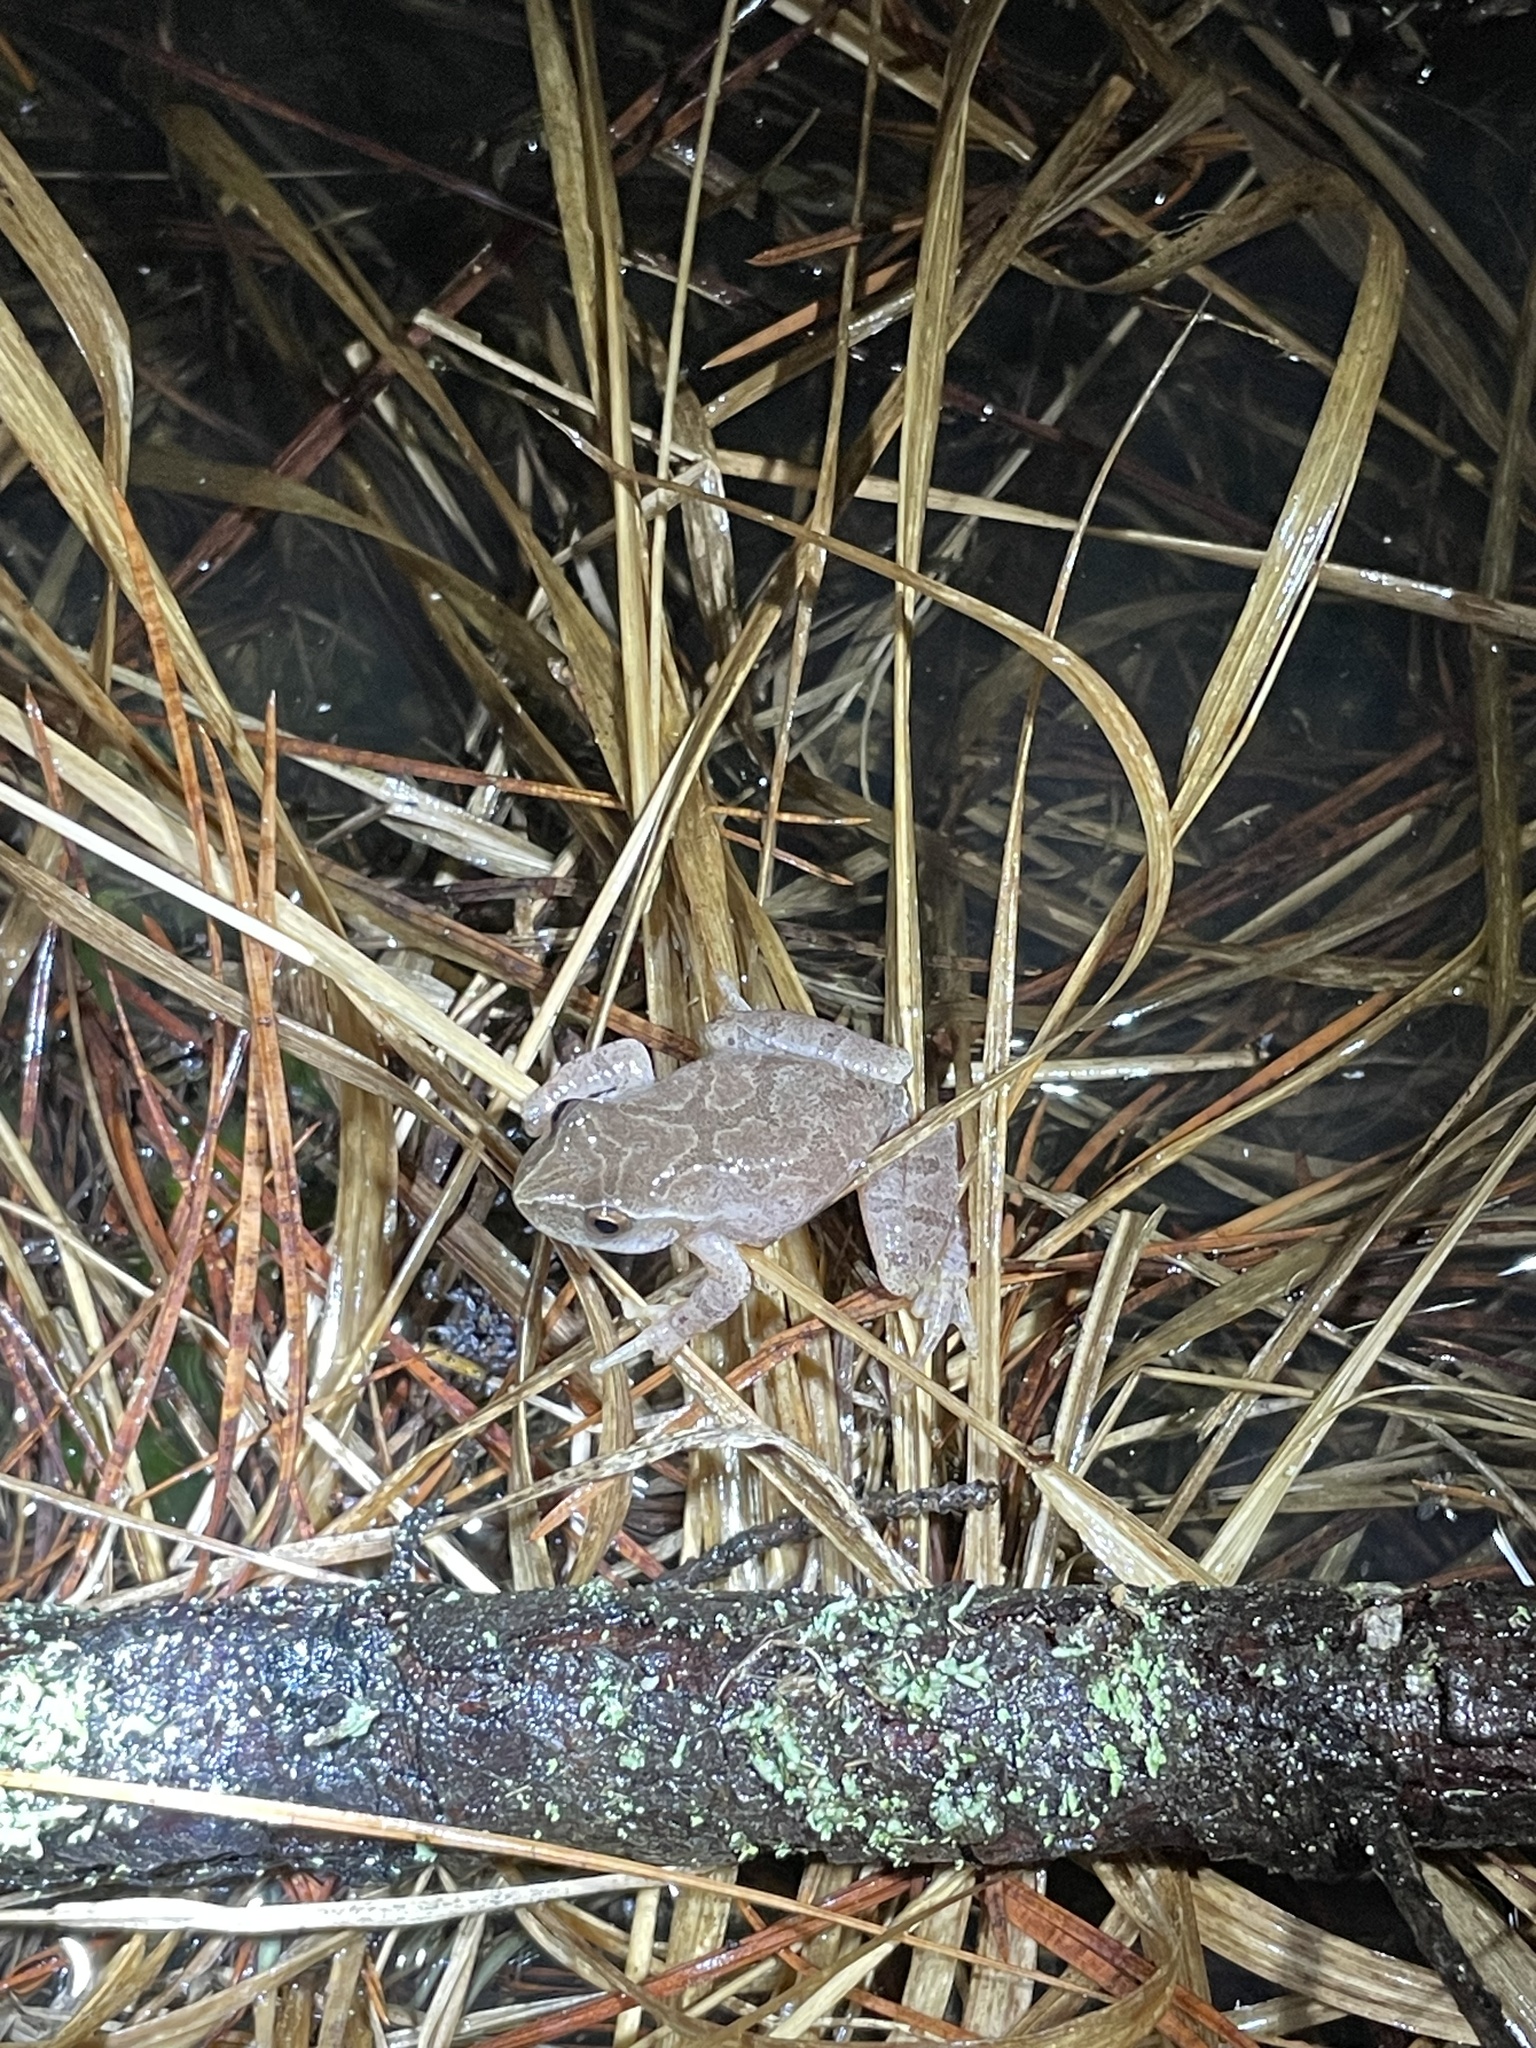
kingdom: Animalia
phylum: Chordata
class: Amphibia
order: Anura
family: Hylidae
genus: Pseudacris
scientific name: Pseudacris crucifer
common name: Spring peeper
